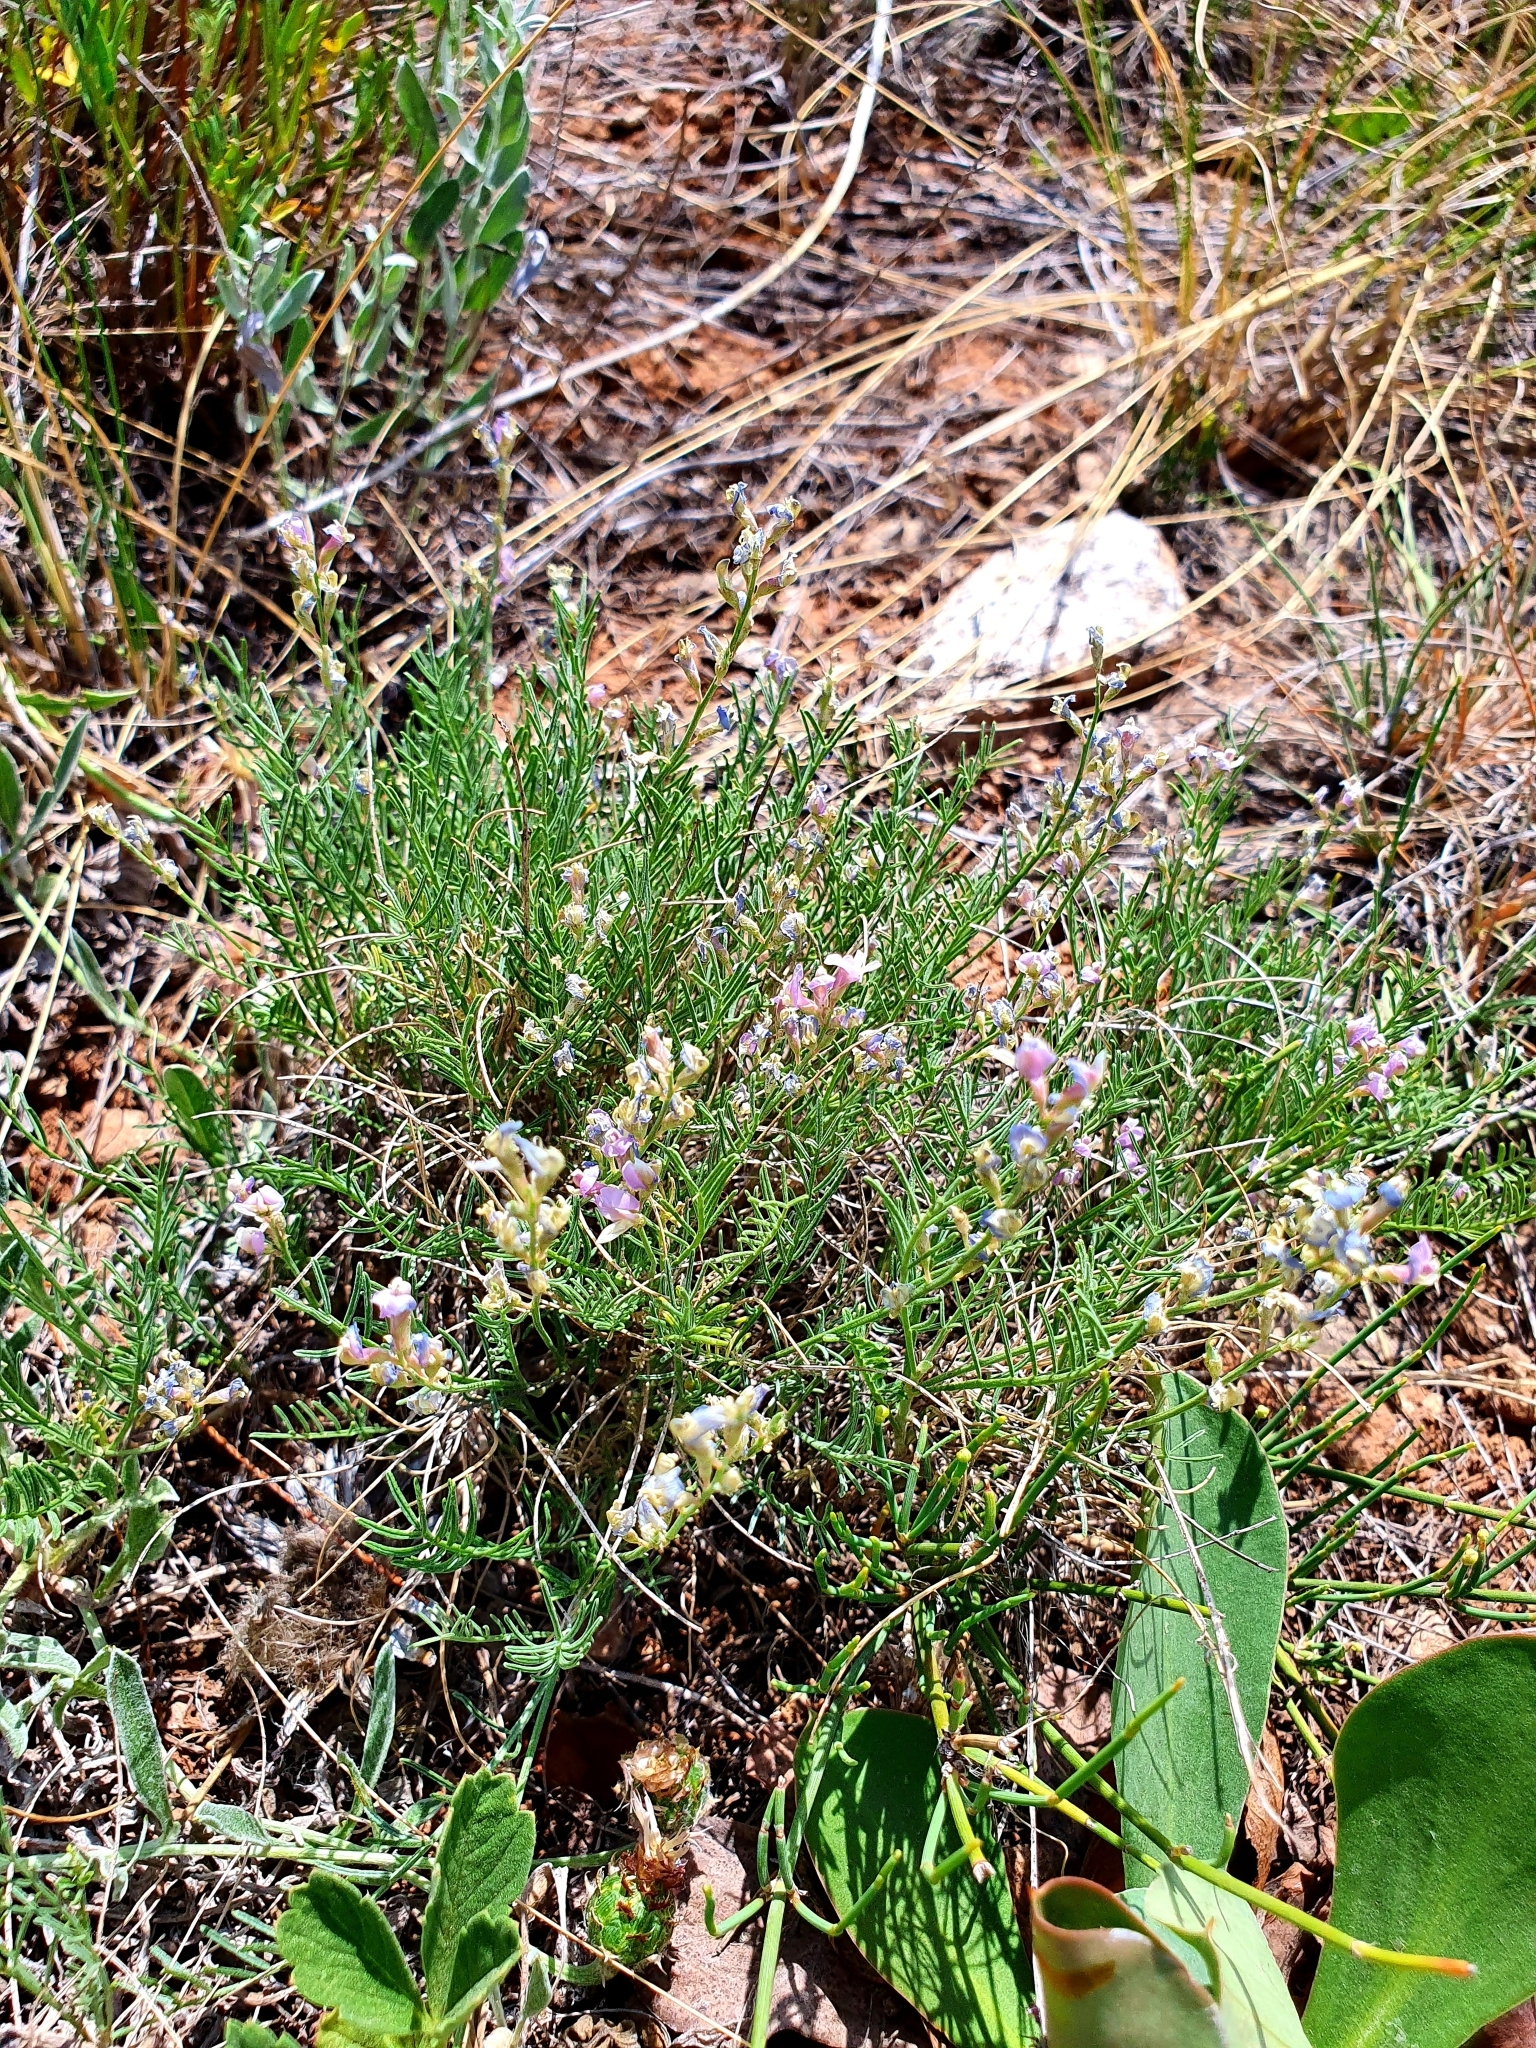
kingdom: Plantae
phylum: Tracheophyta
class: Magnoliopsida
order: Fabales
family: Fabaceae
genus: Astragalus
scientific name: Astragalus
